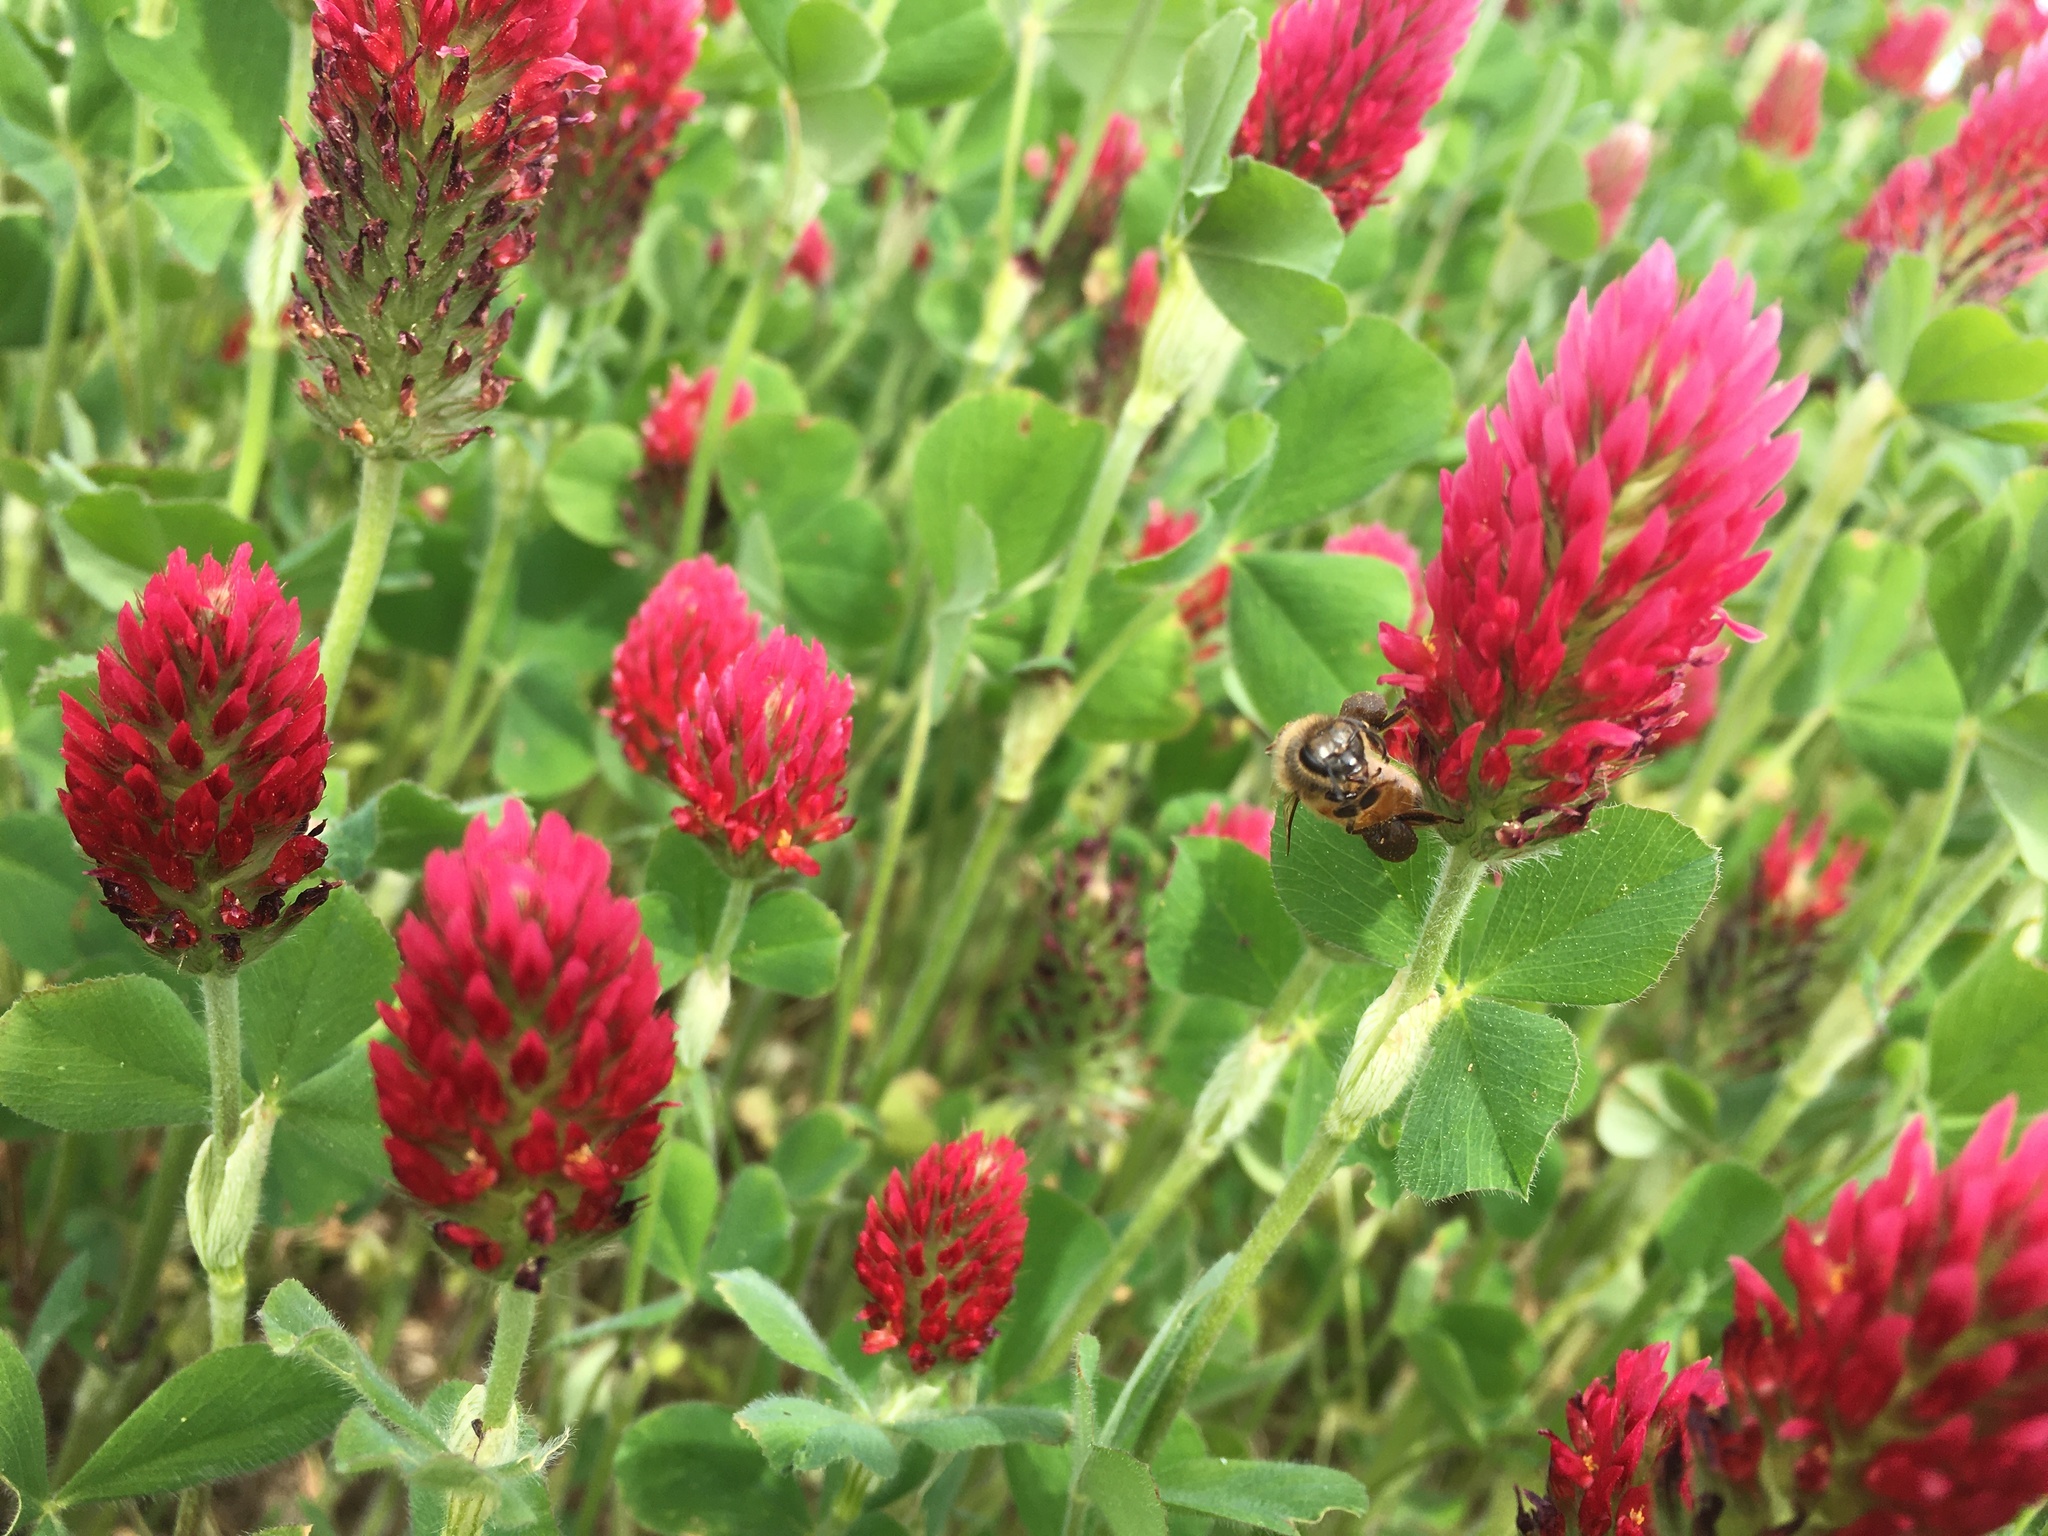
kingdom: Animalia
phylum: Arthropoda
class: Insecta
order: Hymenoptera
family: Apidae
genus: Apis
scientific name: Apis mellifera
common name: Honey bee
